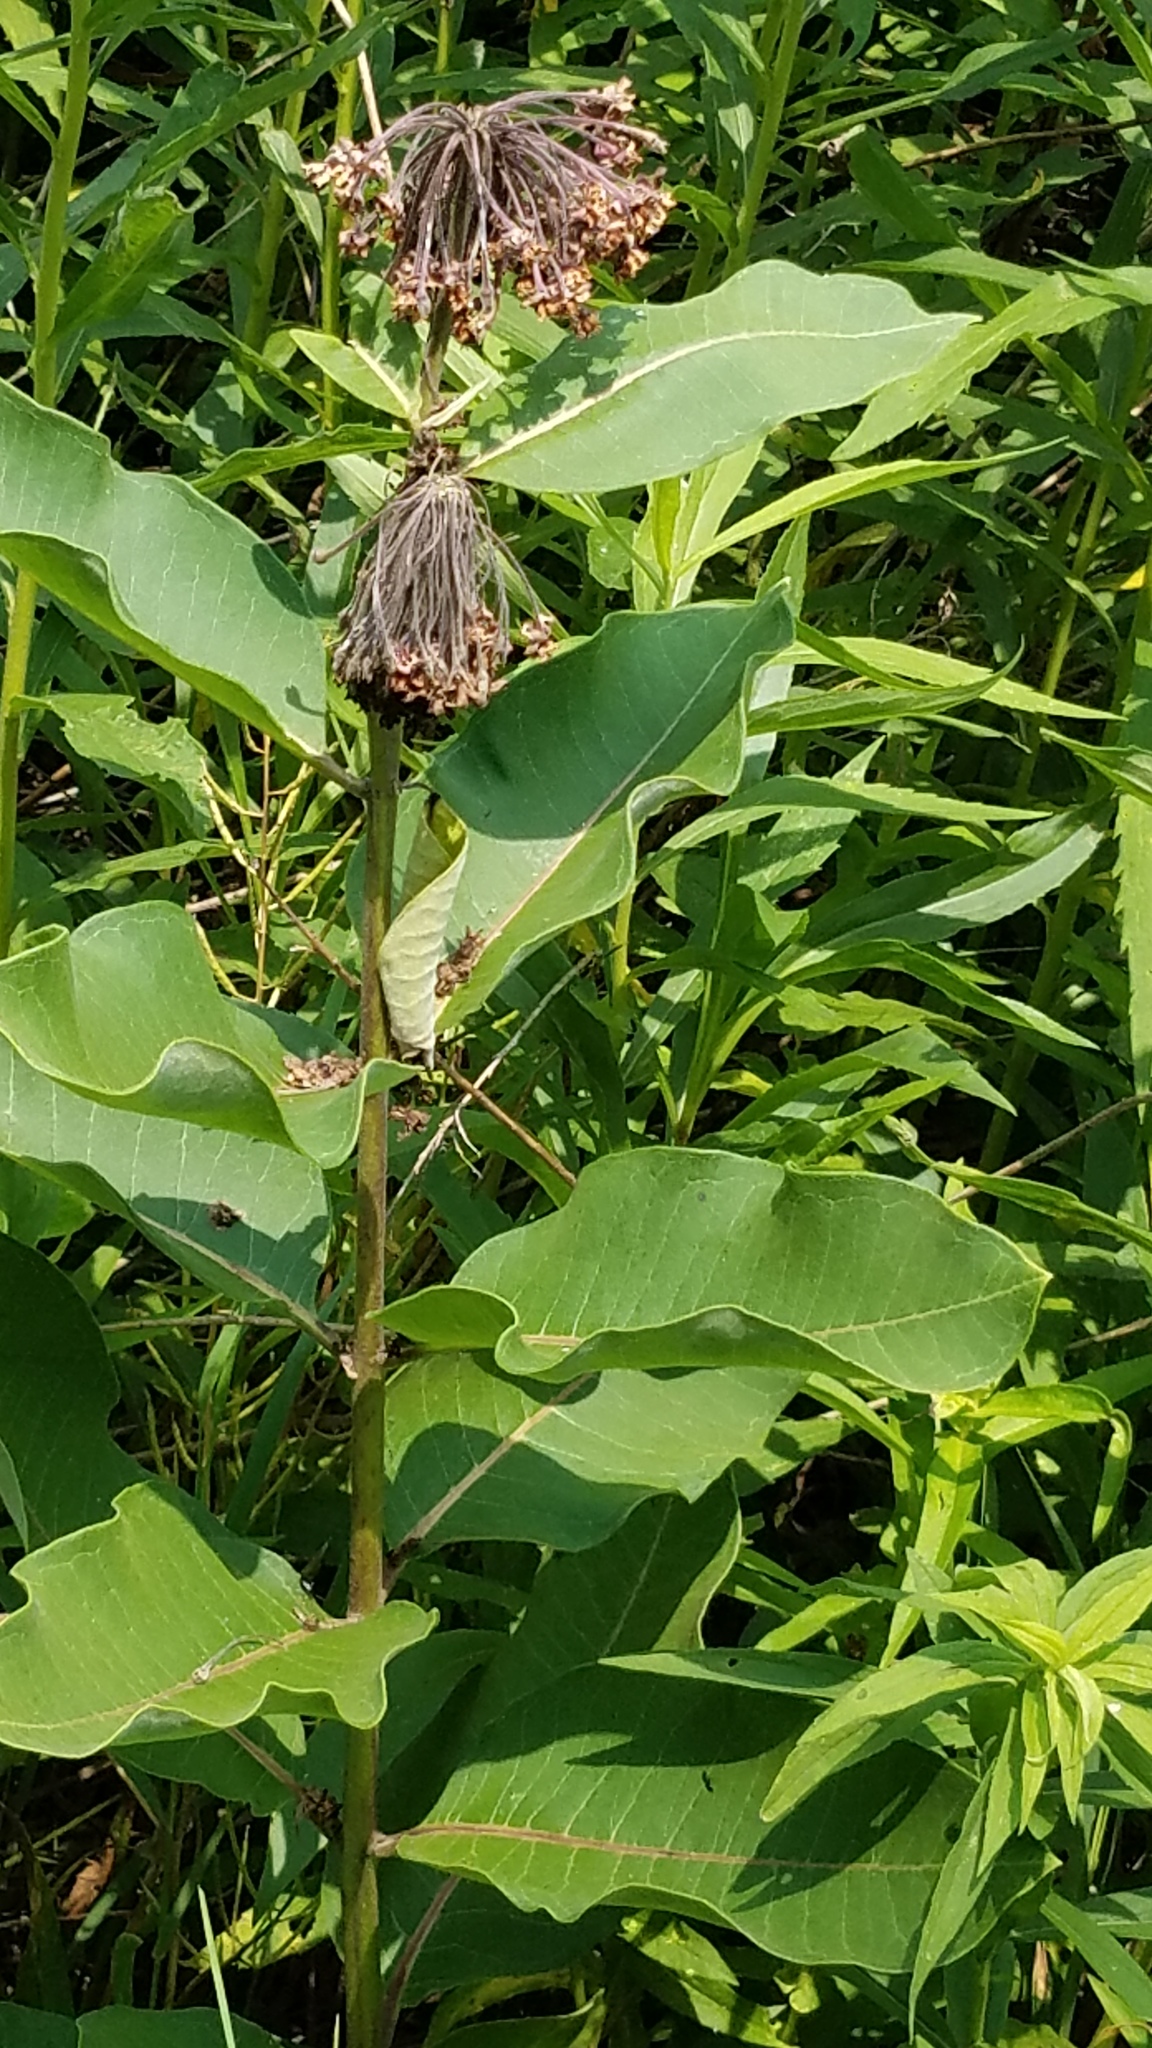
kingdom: Plantae
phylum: Tracheophyta
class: Magnoliopsida
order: Gentianales
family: Apocynaceae
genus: Asclepias
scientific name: Asclepias syriaca
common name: Common milkweed
